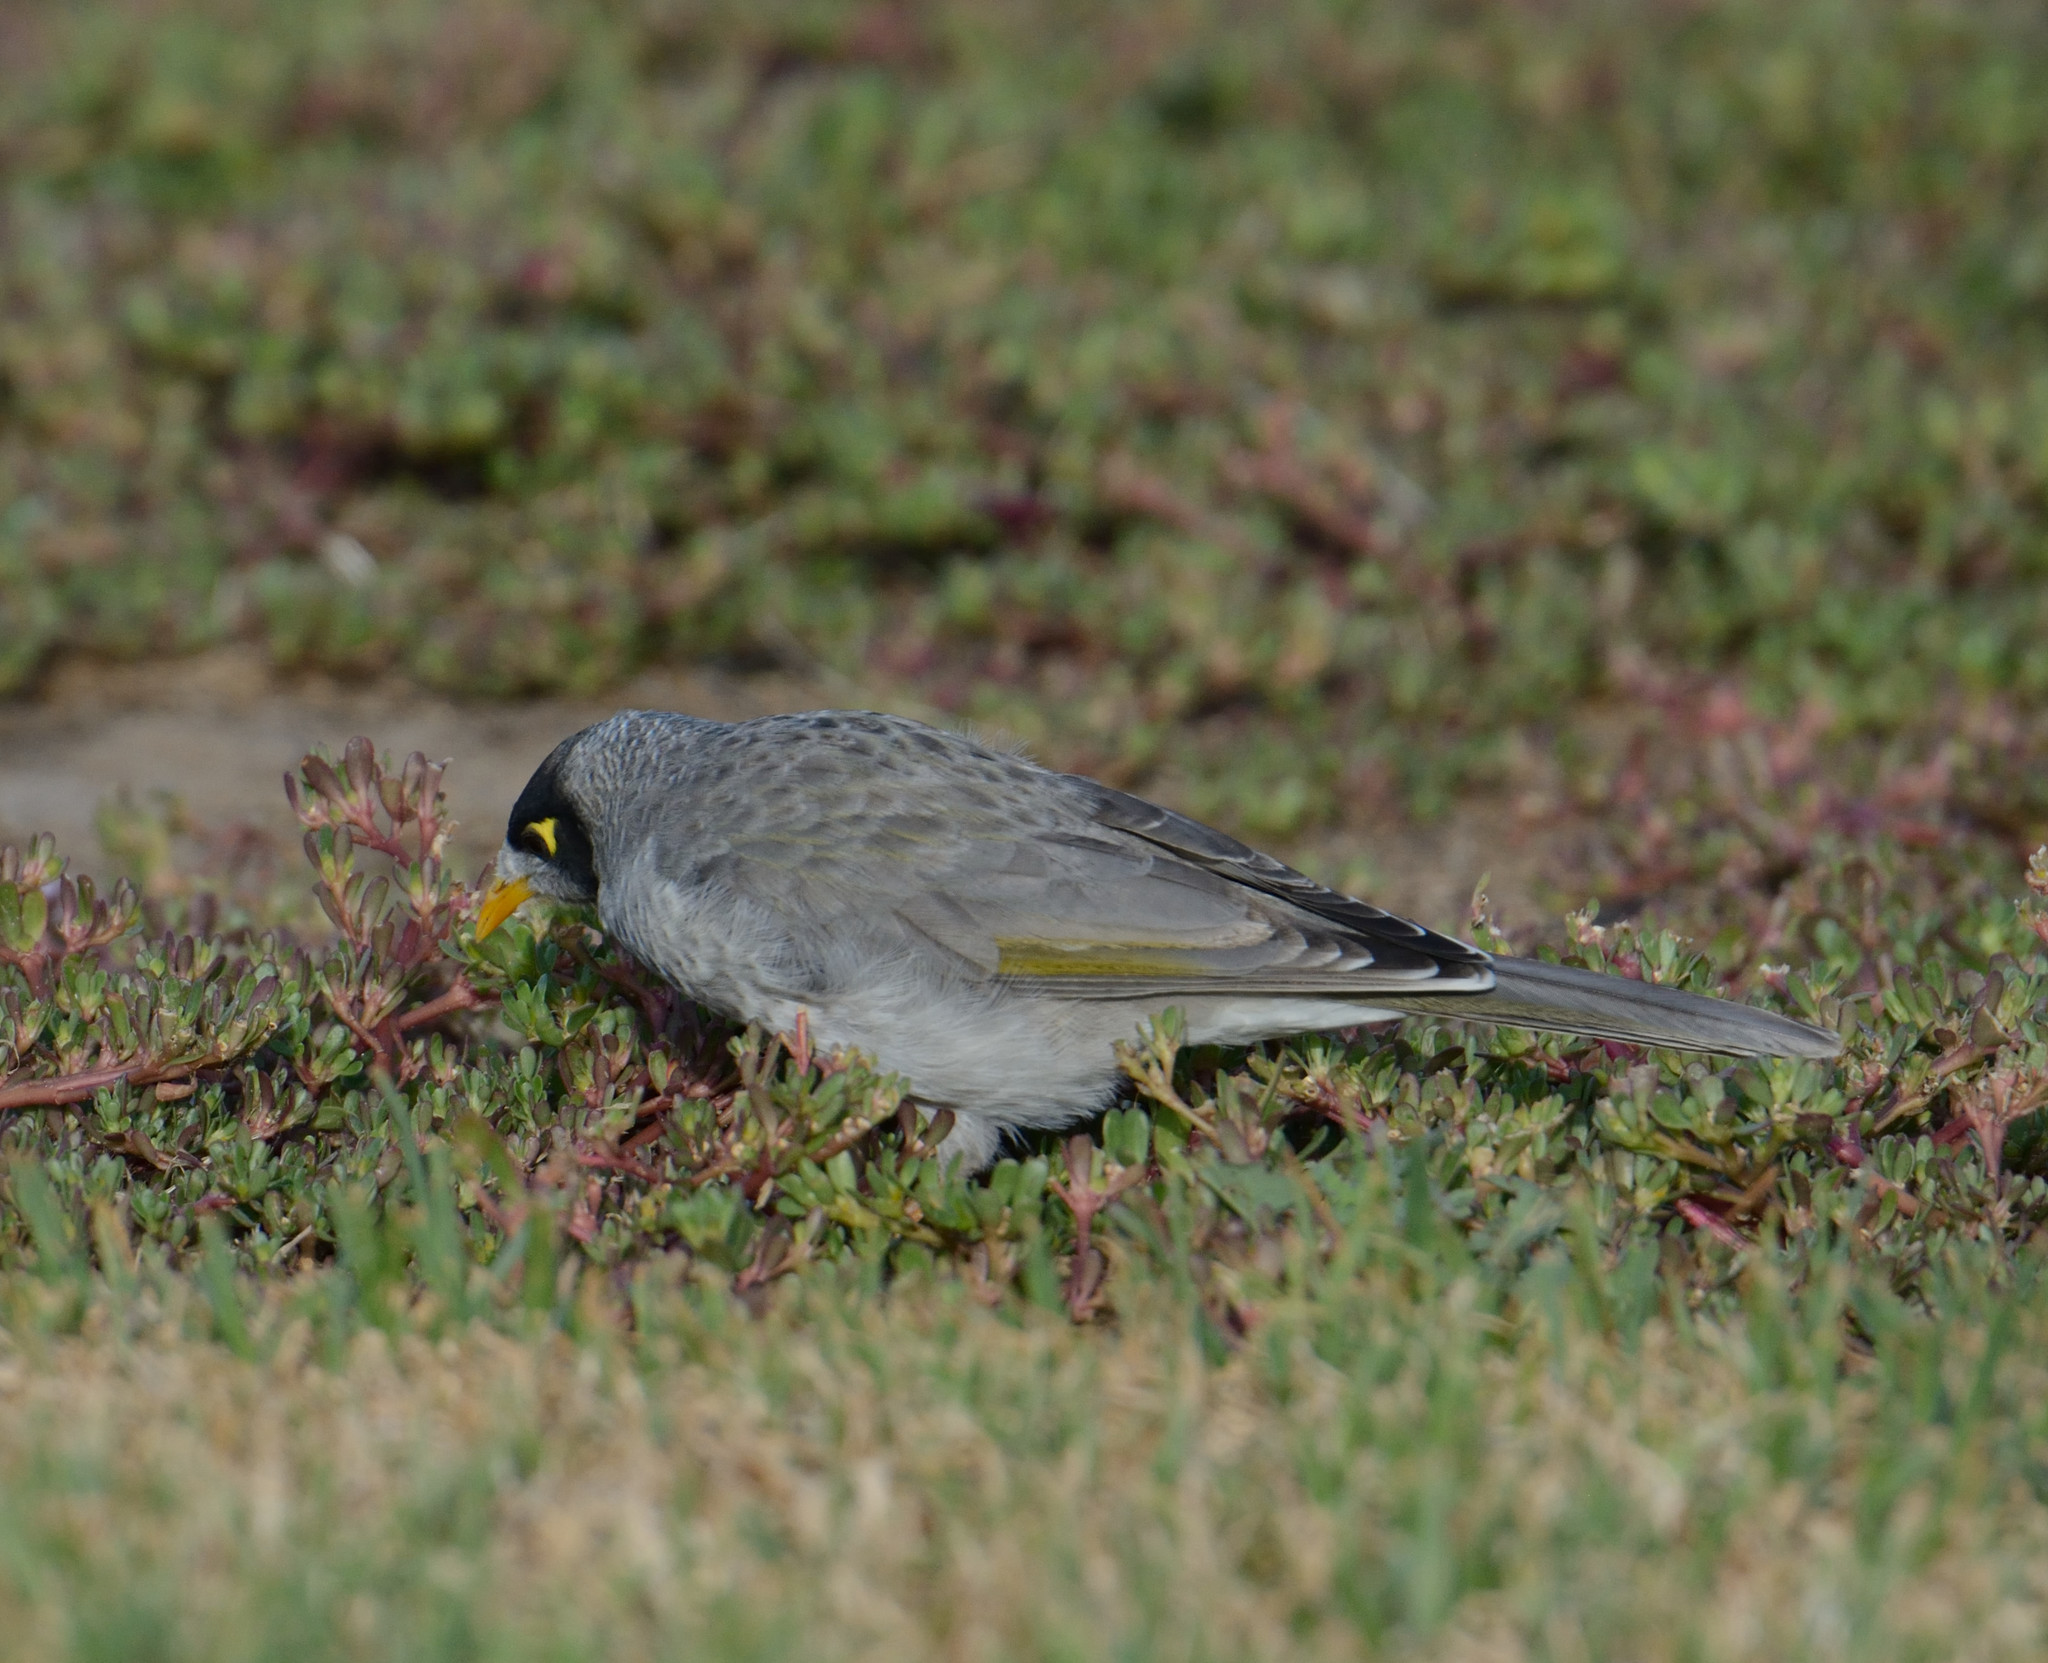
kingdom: Animalia
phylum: Chordata
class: Aves
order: Passeriformes
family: Meliphagidae
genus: Manorina
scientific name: Manorina melanocephala
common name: Noisy miner
